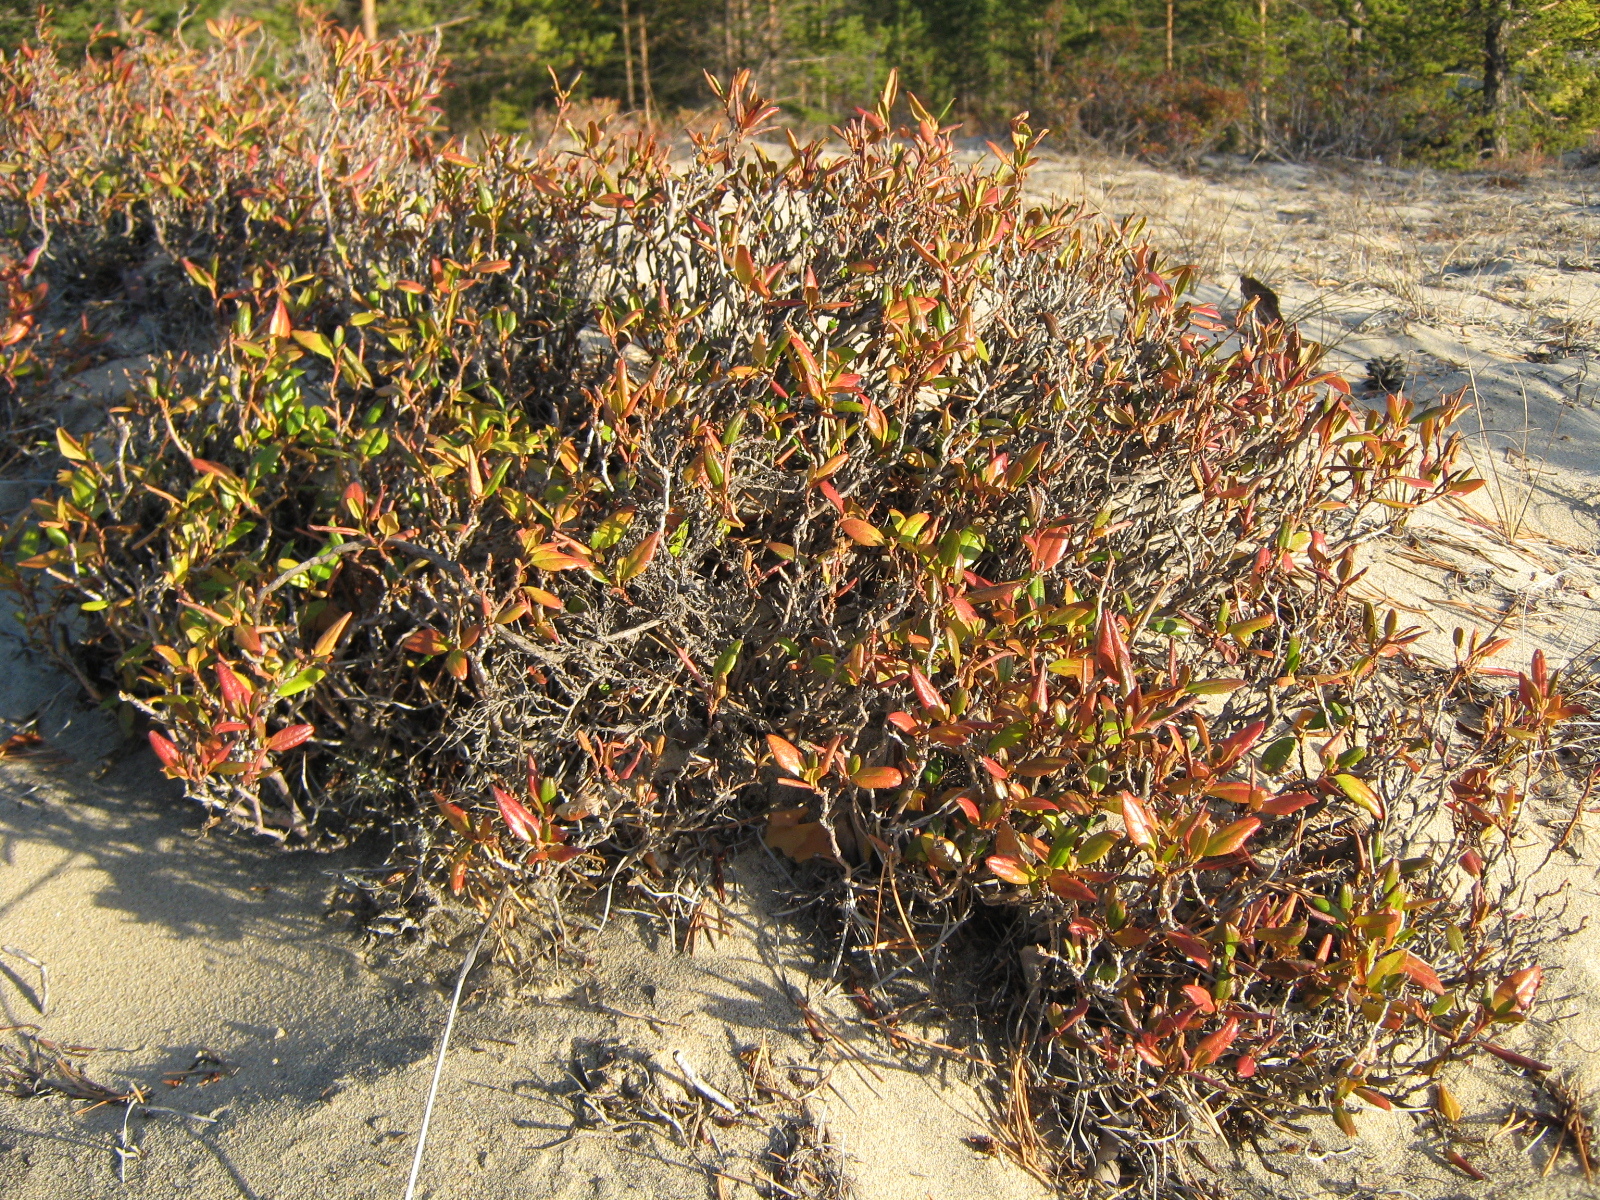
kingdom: Plantae
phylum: Tracheophyta
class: Magnoliopsida
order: Ericales
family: Ericaceae
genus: Rhododendron
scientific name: Rhododendron dauricum
